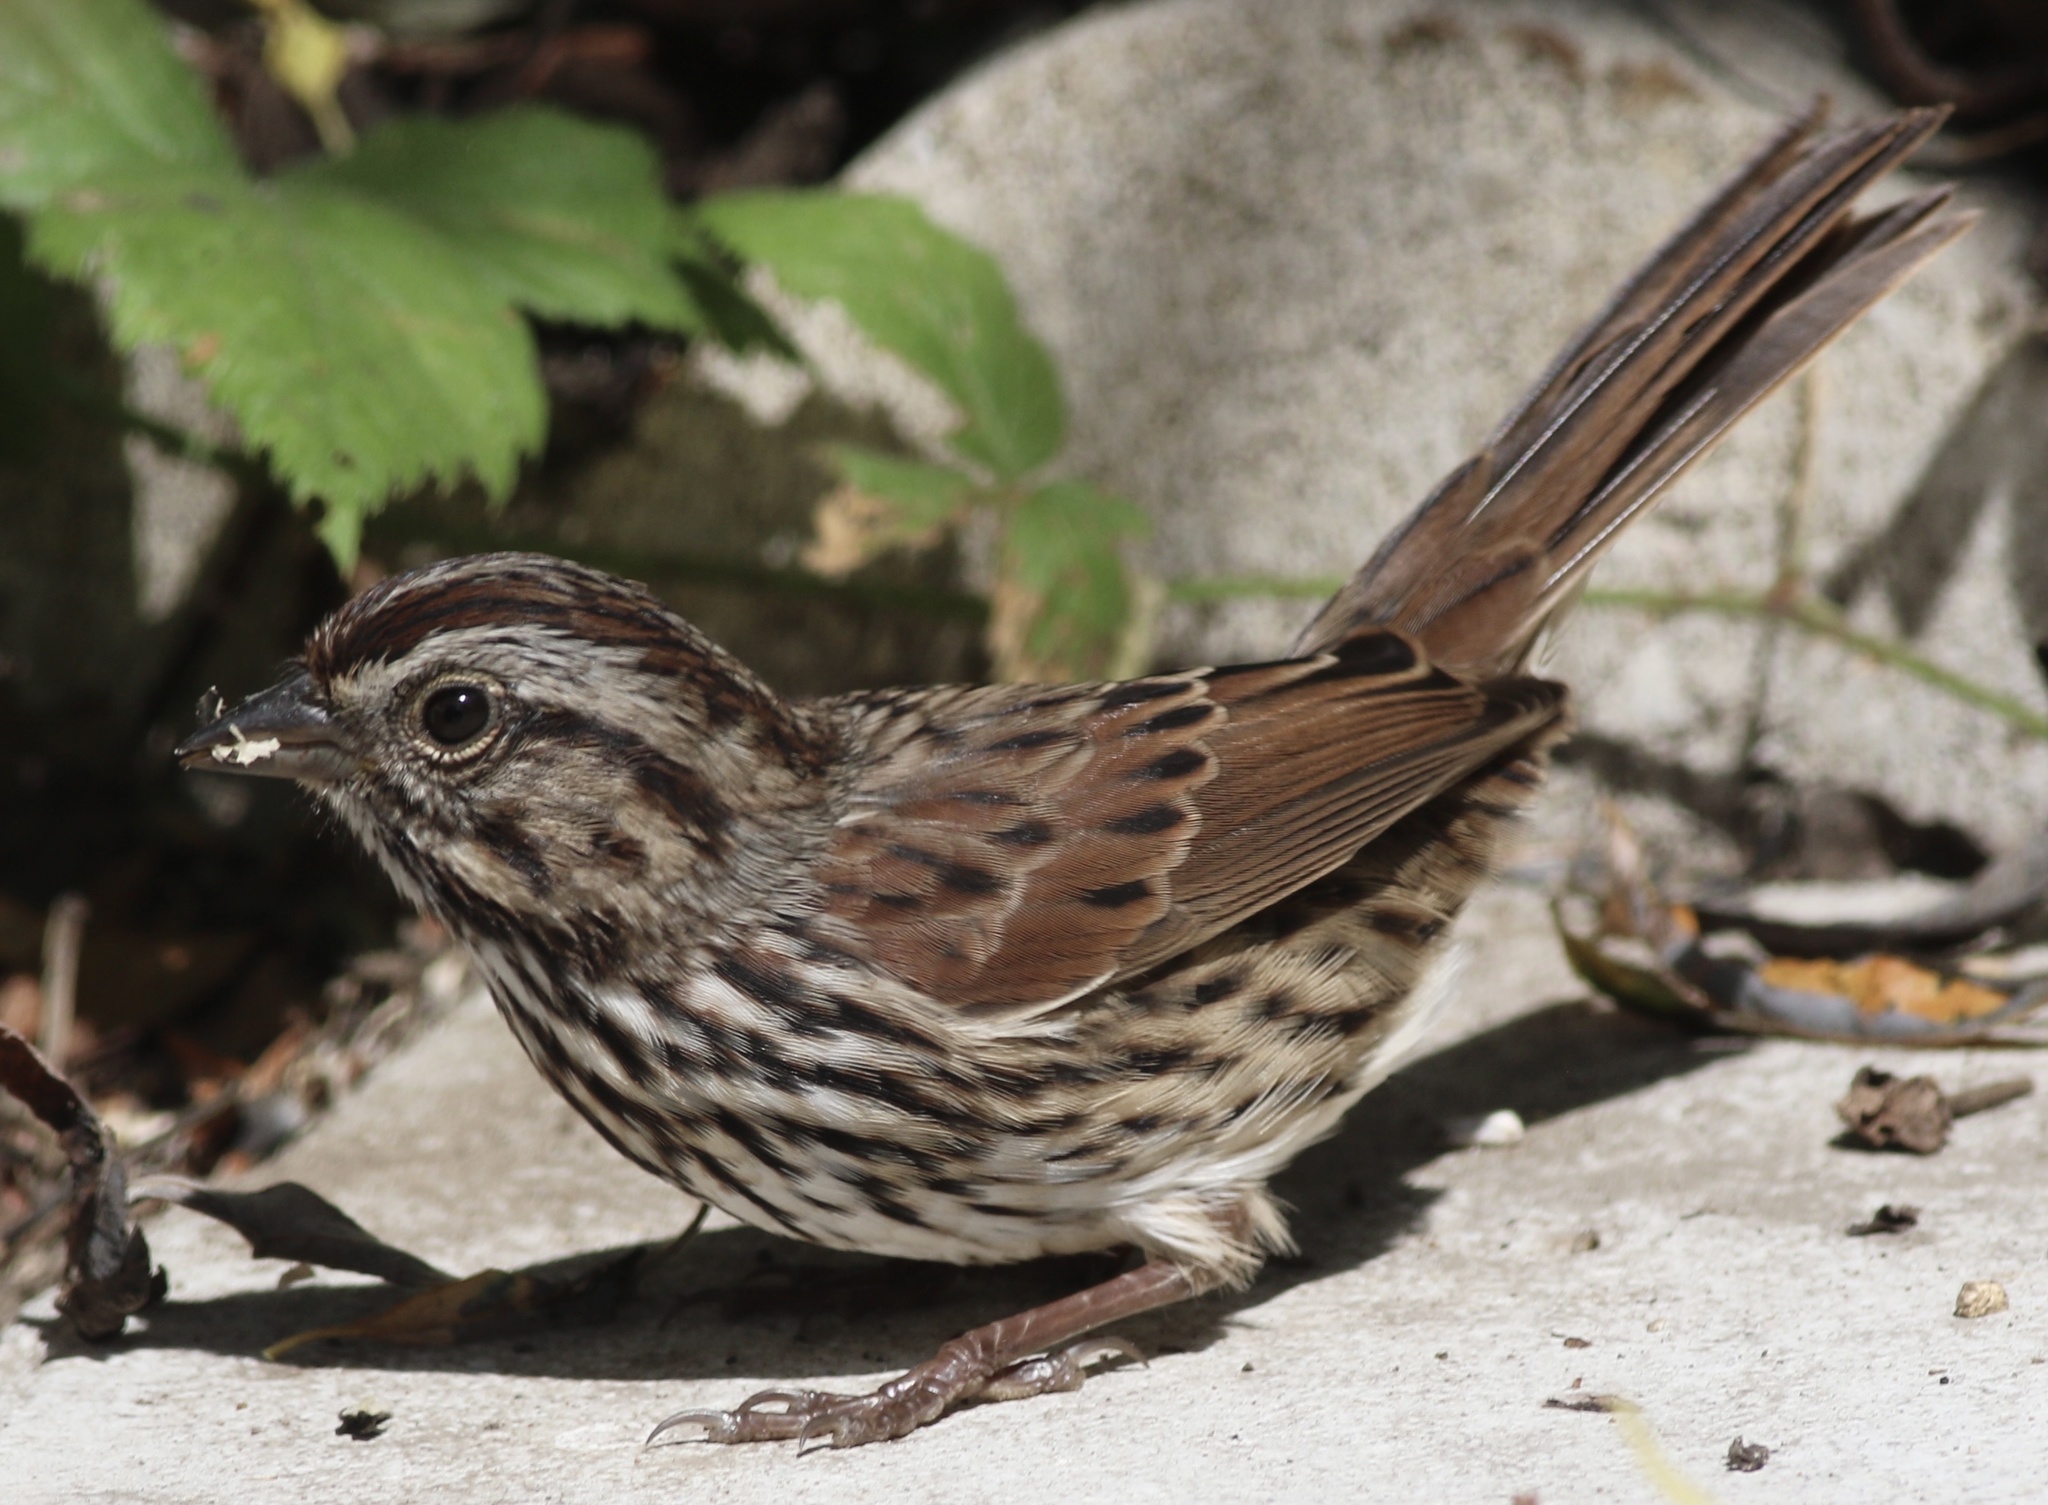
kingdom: Animalia
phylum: Chordata
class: Aves
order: Passeriformes
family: Passerellidae
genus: Melospiza
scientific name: Melospiza melodia
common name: Song sparrow
